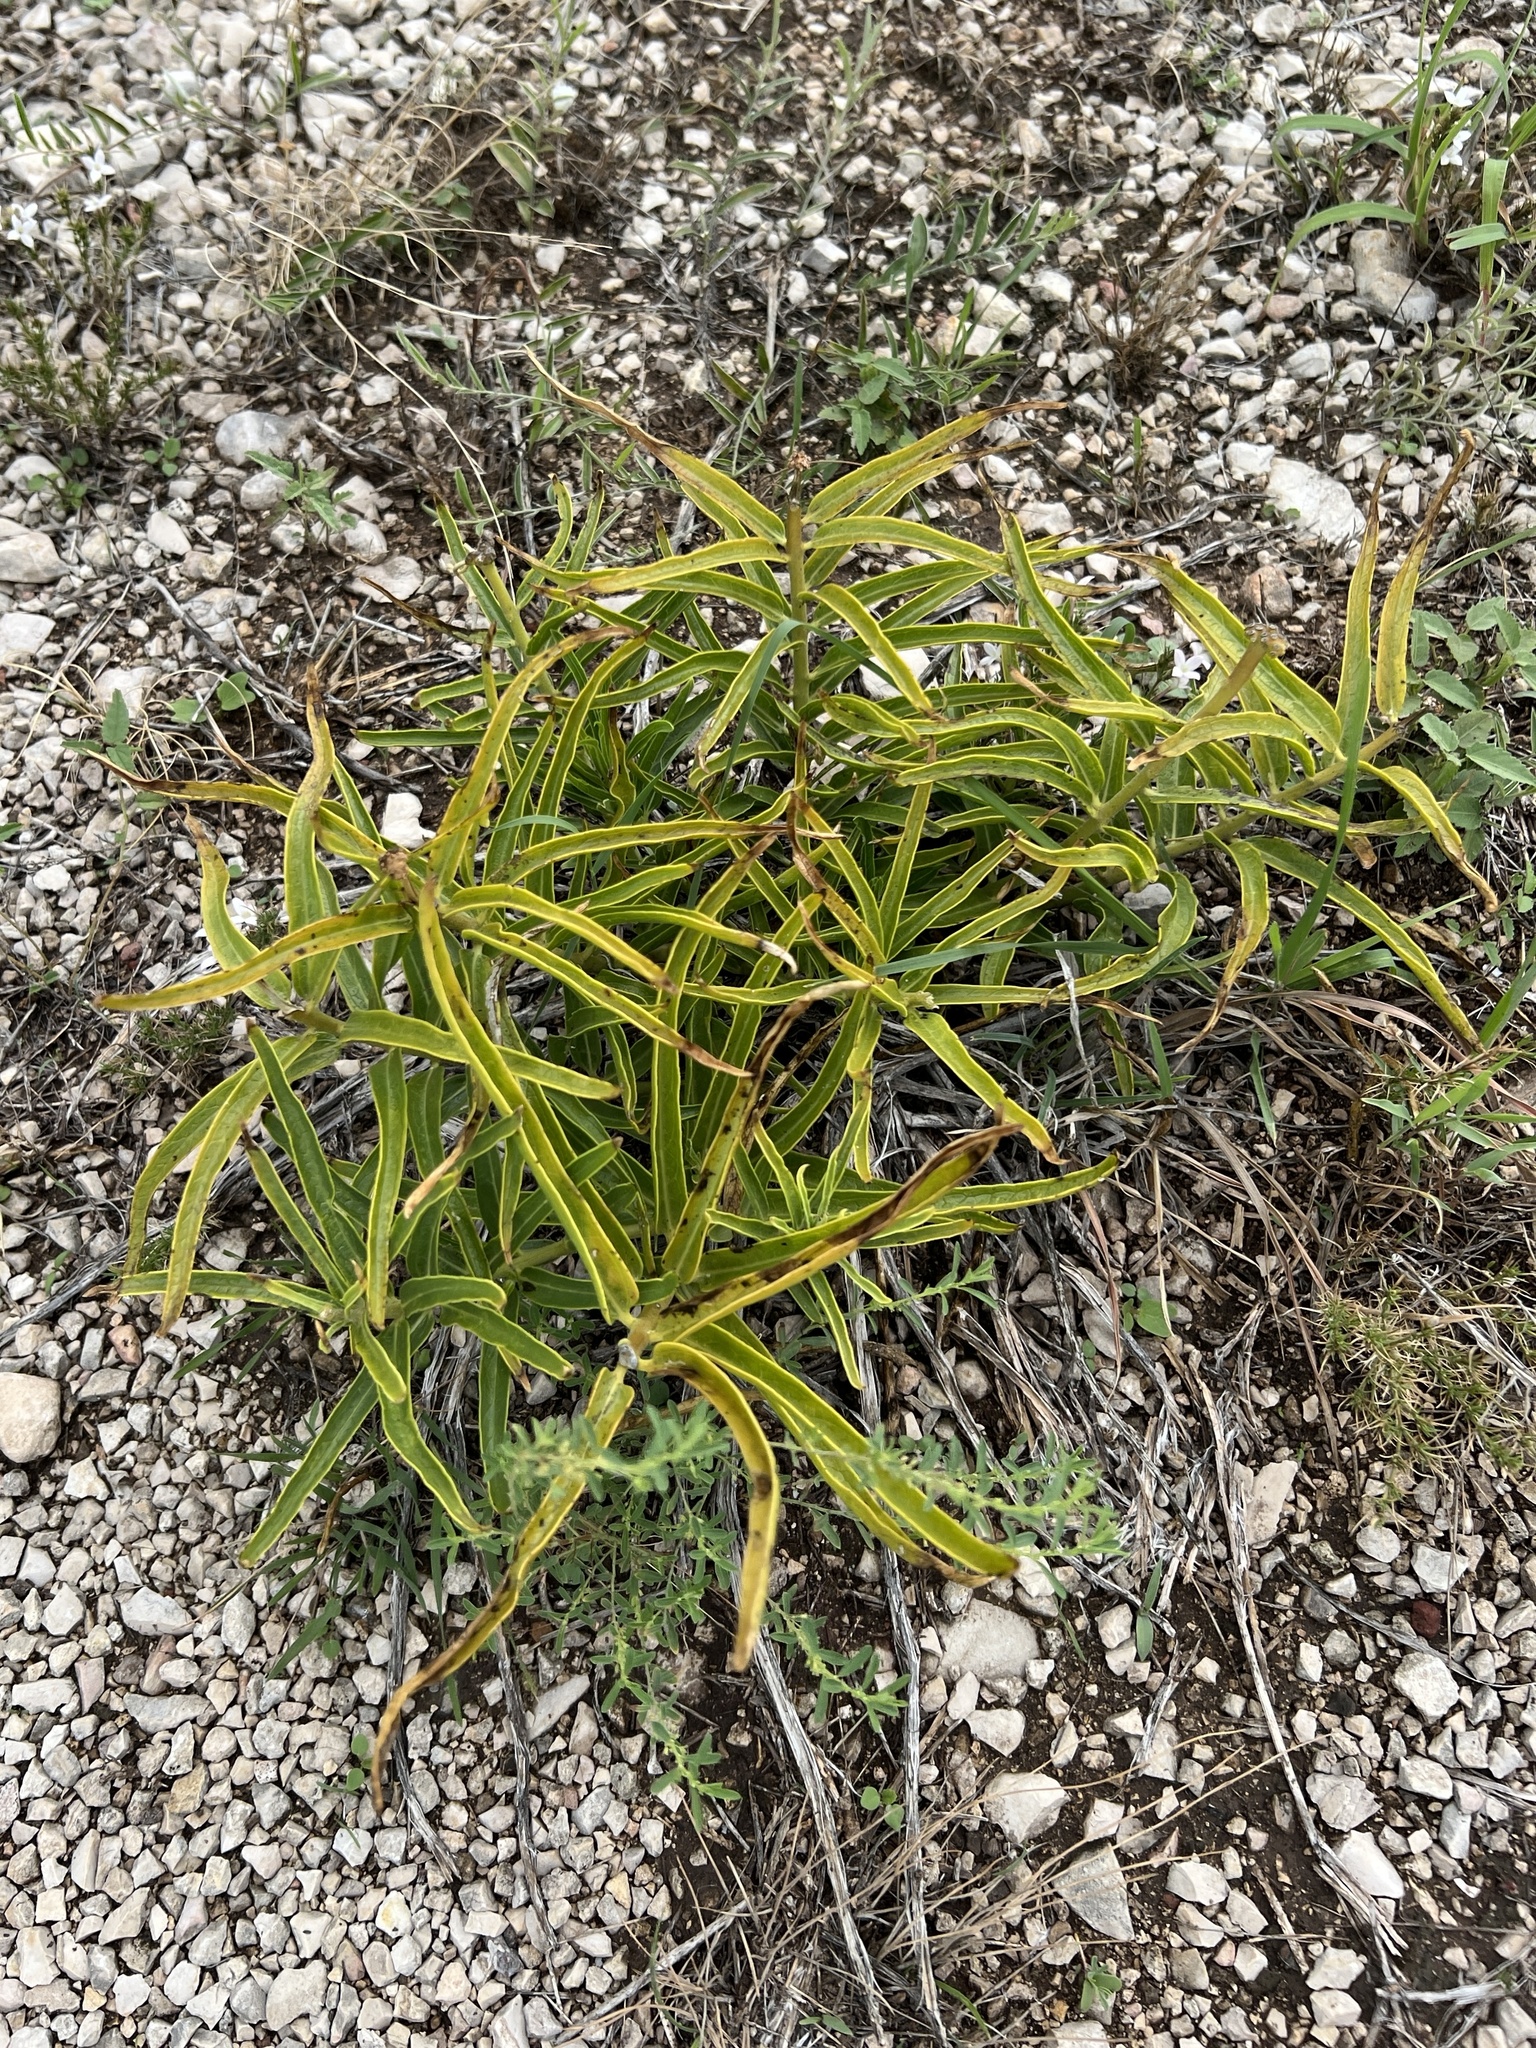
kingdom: Plantae
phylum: Tracheophyta
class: Magnoliopsida
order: Gentianales
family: Apocynaceae
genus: Asclepias
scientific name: Asclepias asperula
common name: Antelope horns
